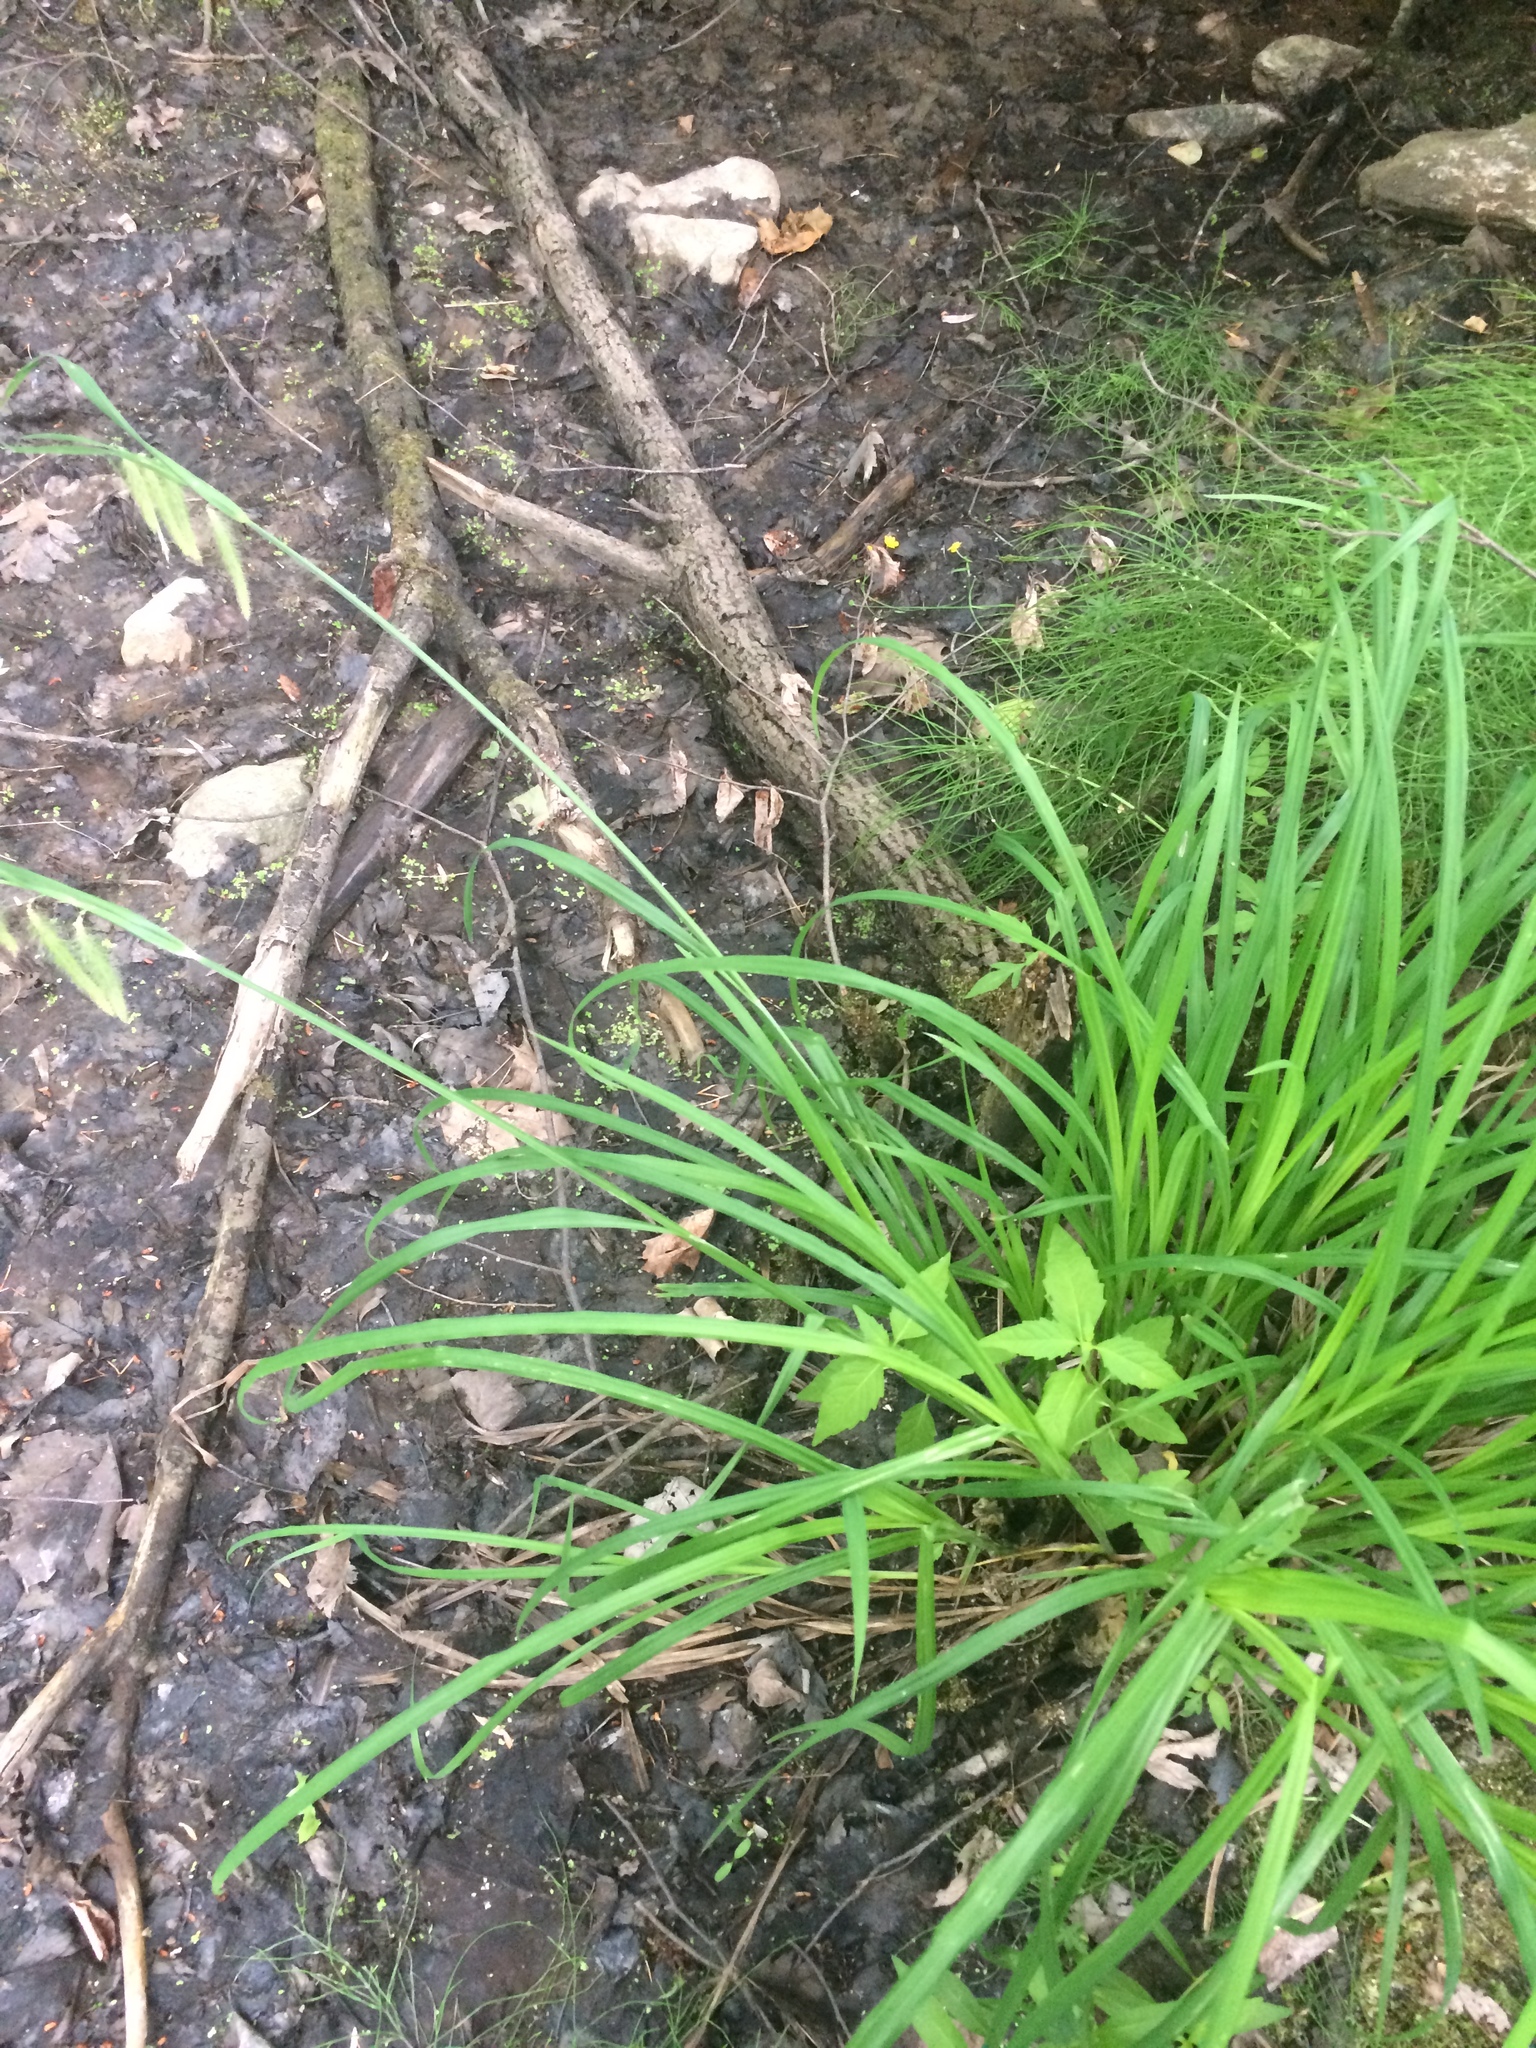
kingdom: Plantae
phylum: Tracheophyta
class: Liliopsida
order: Poales
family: Cyperaceae
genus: Carex
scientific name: Carex crinita
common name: Fringed sedge
